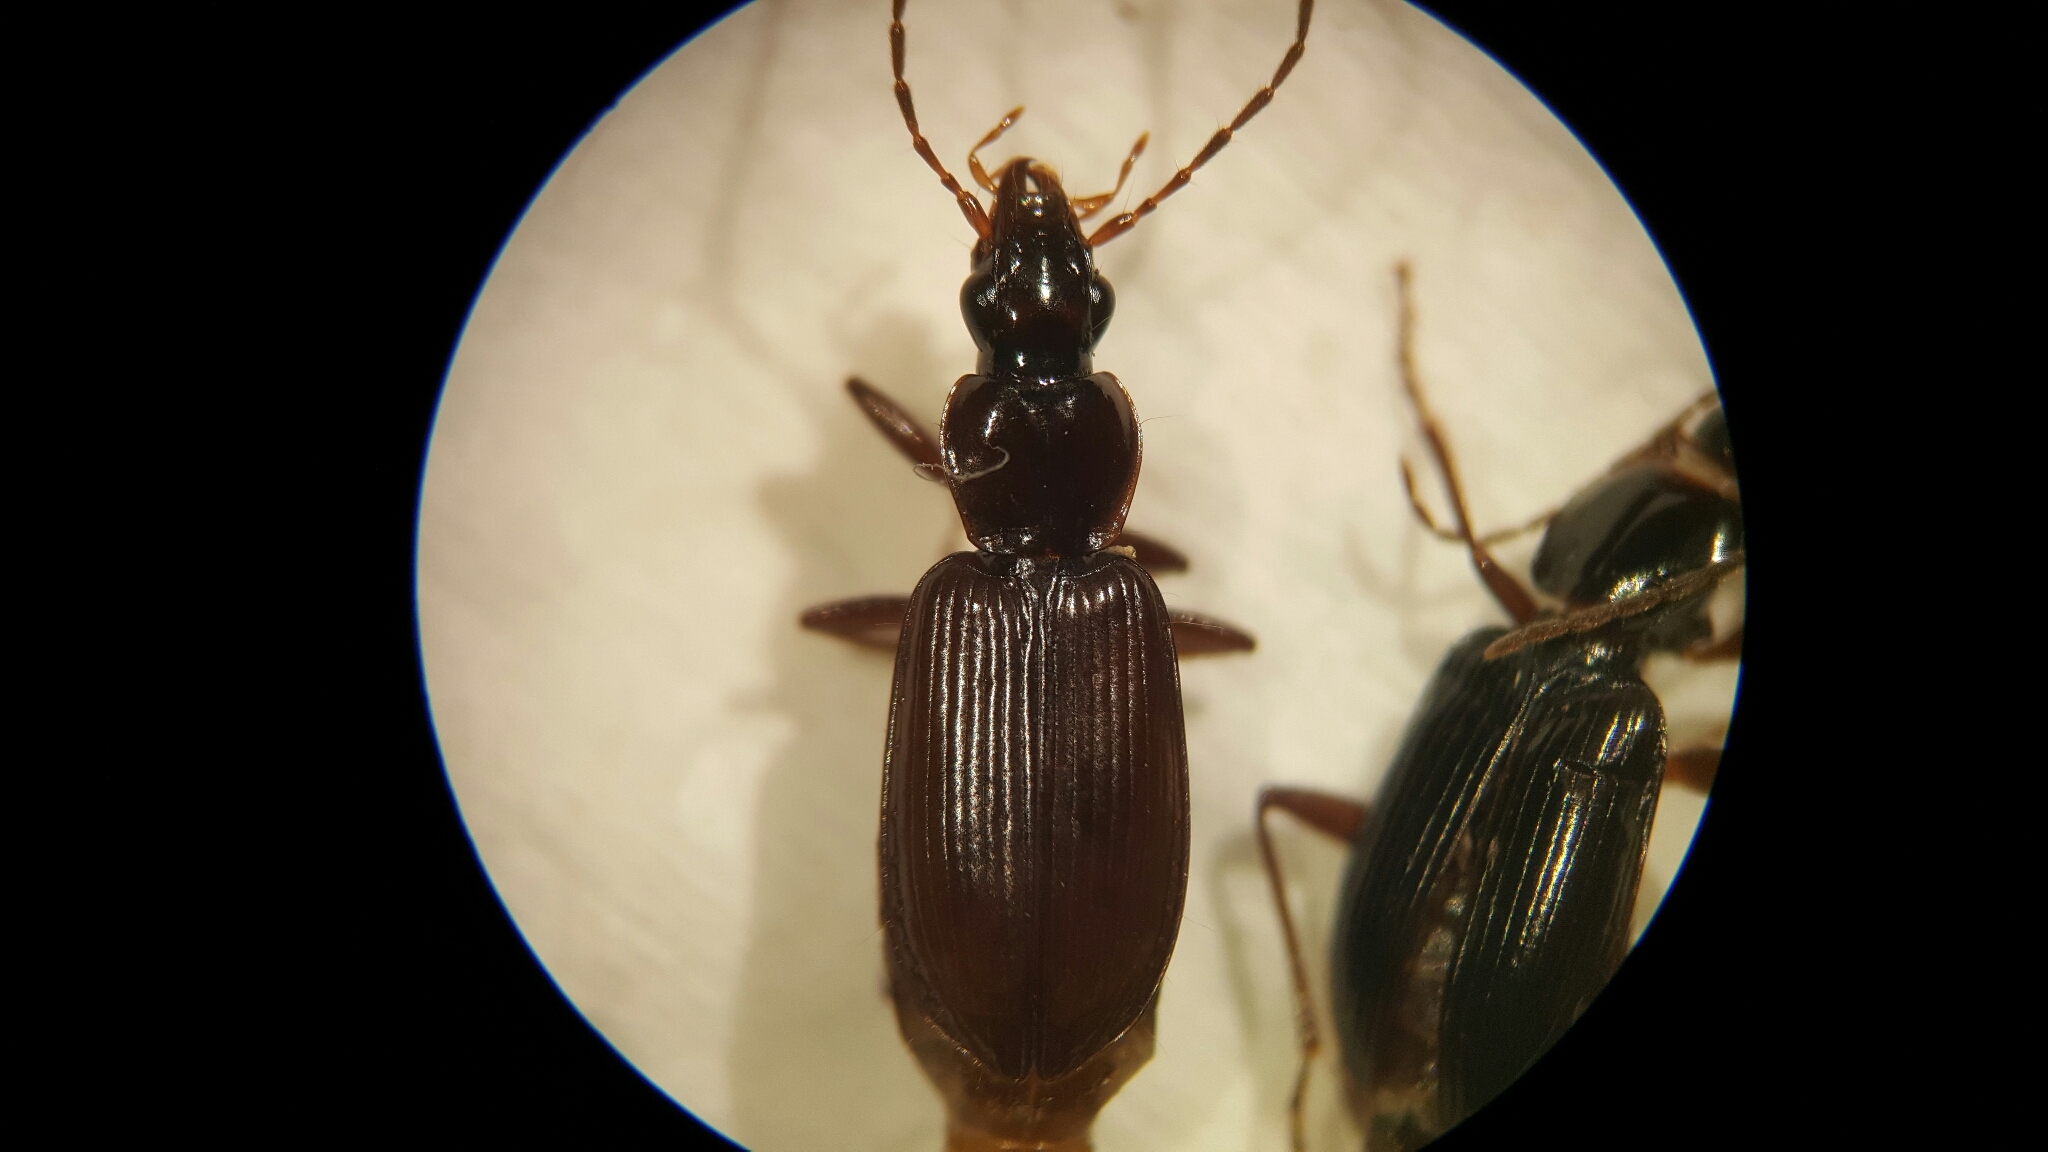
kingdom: Animalia
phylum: Arthropoda
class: Insecta
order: Coleoptera
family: Carabidae
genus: Platynus
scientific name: Platynus livens
